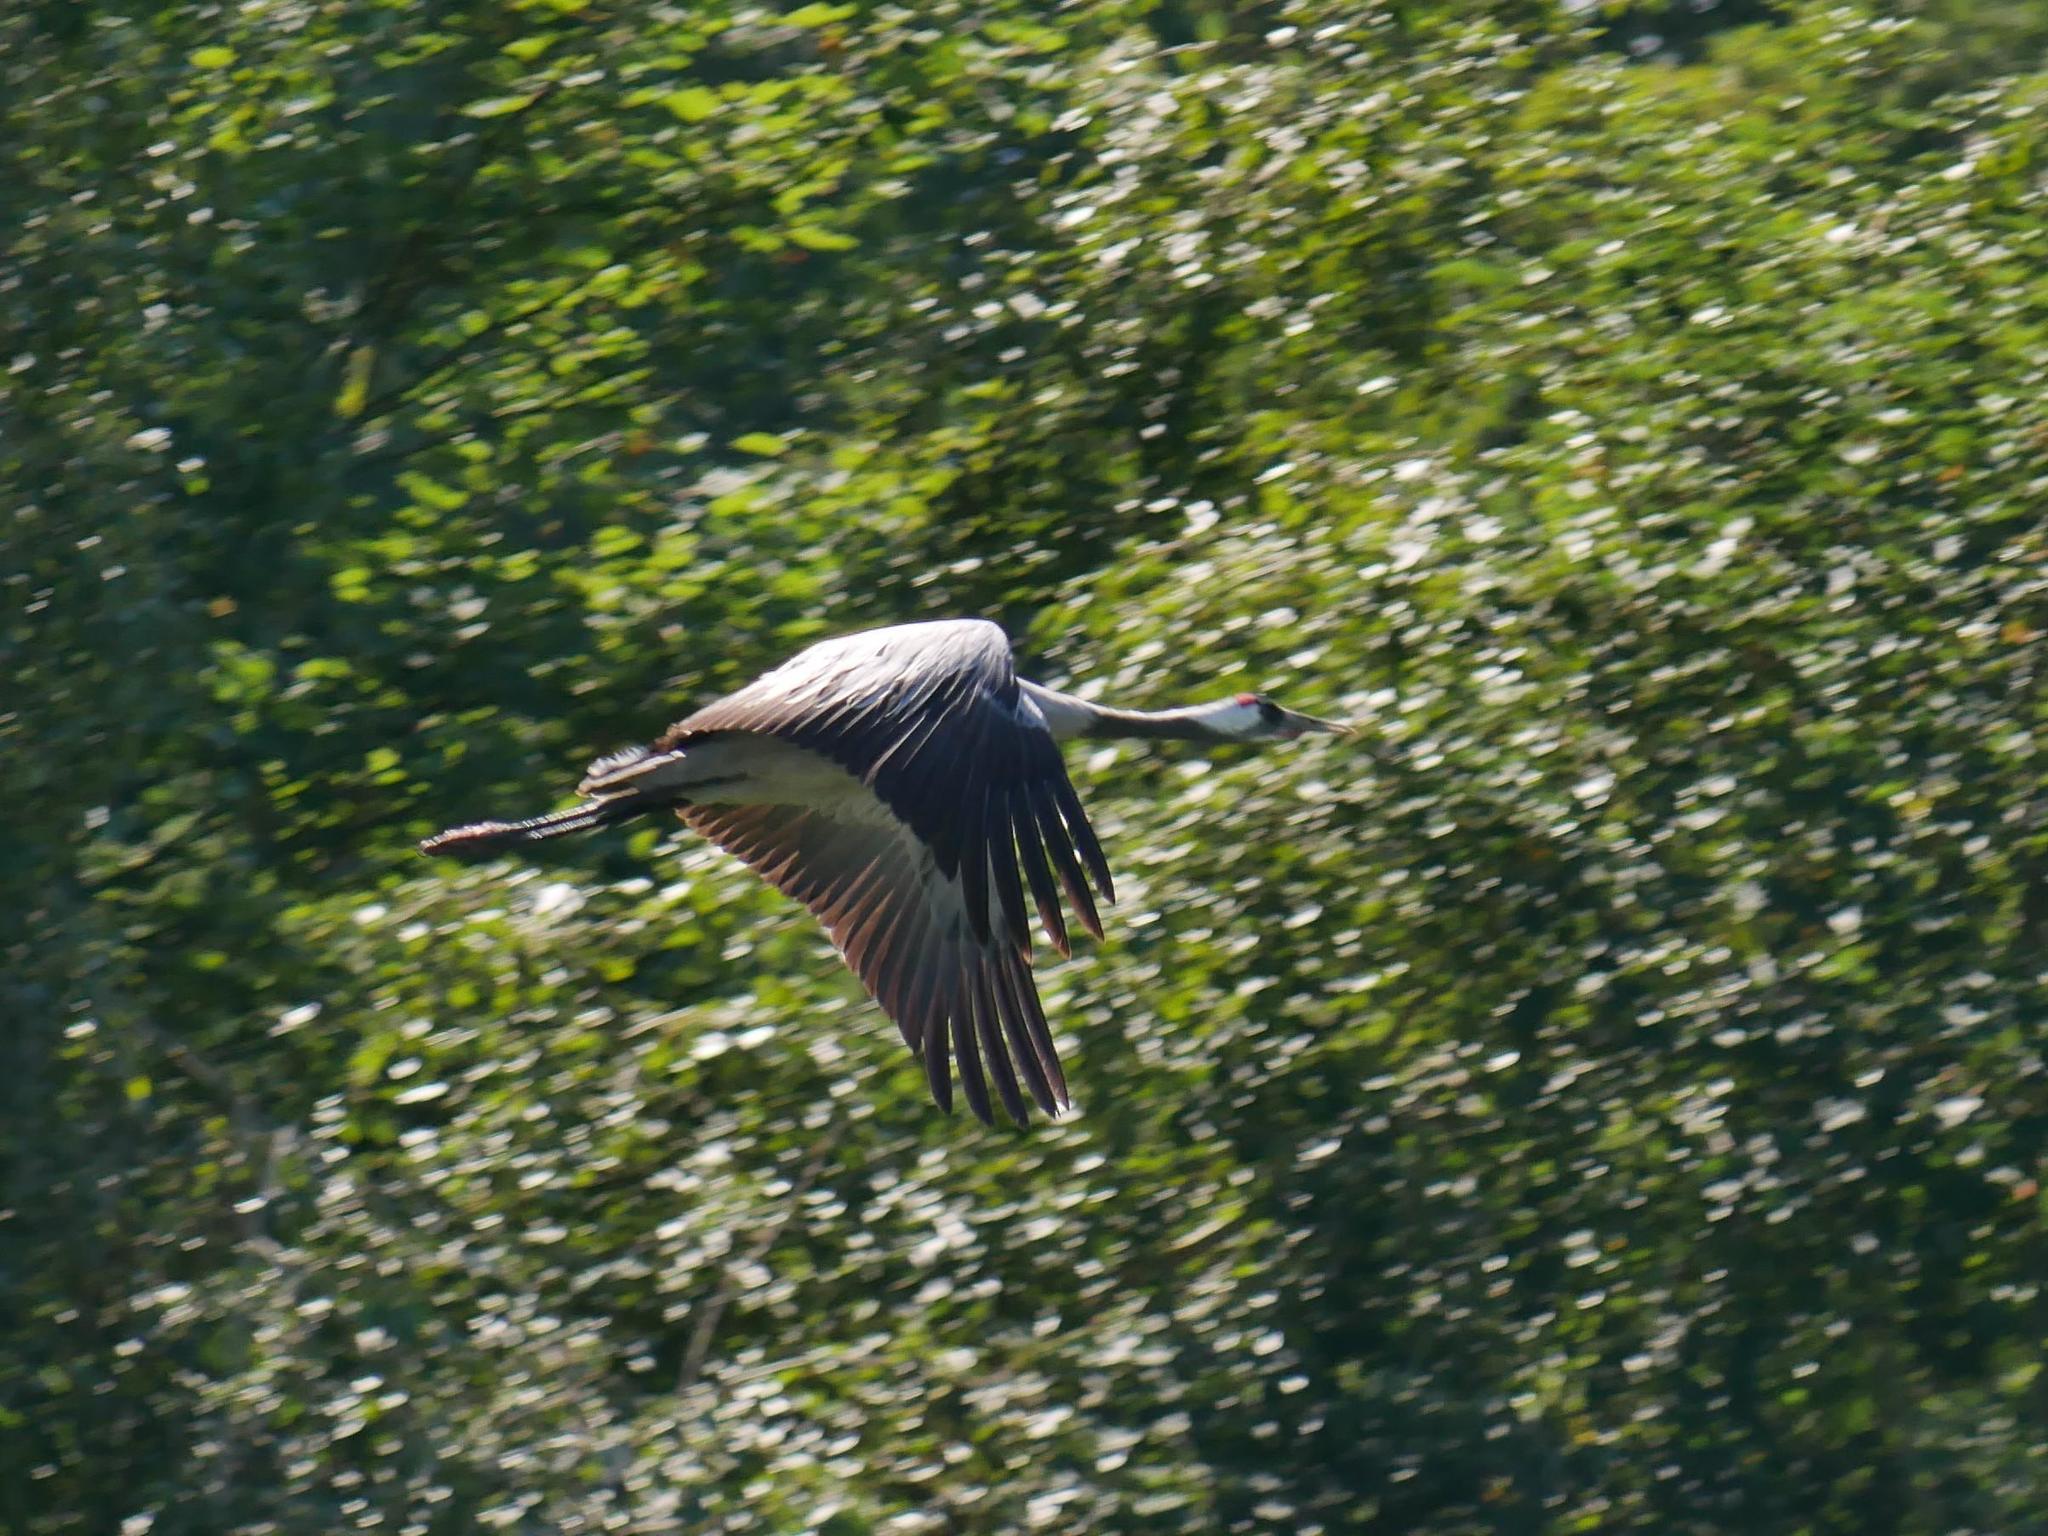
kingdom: Animalia
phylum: Chordata
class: Aves
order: Gruiformes
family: Gruidae
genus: Grus
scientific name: Grus grus
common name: Common crane
